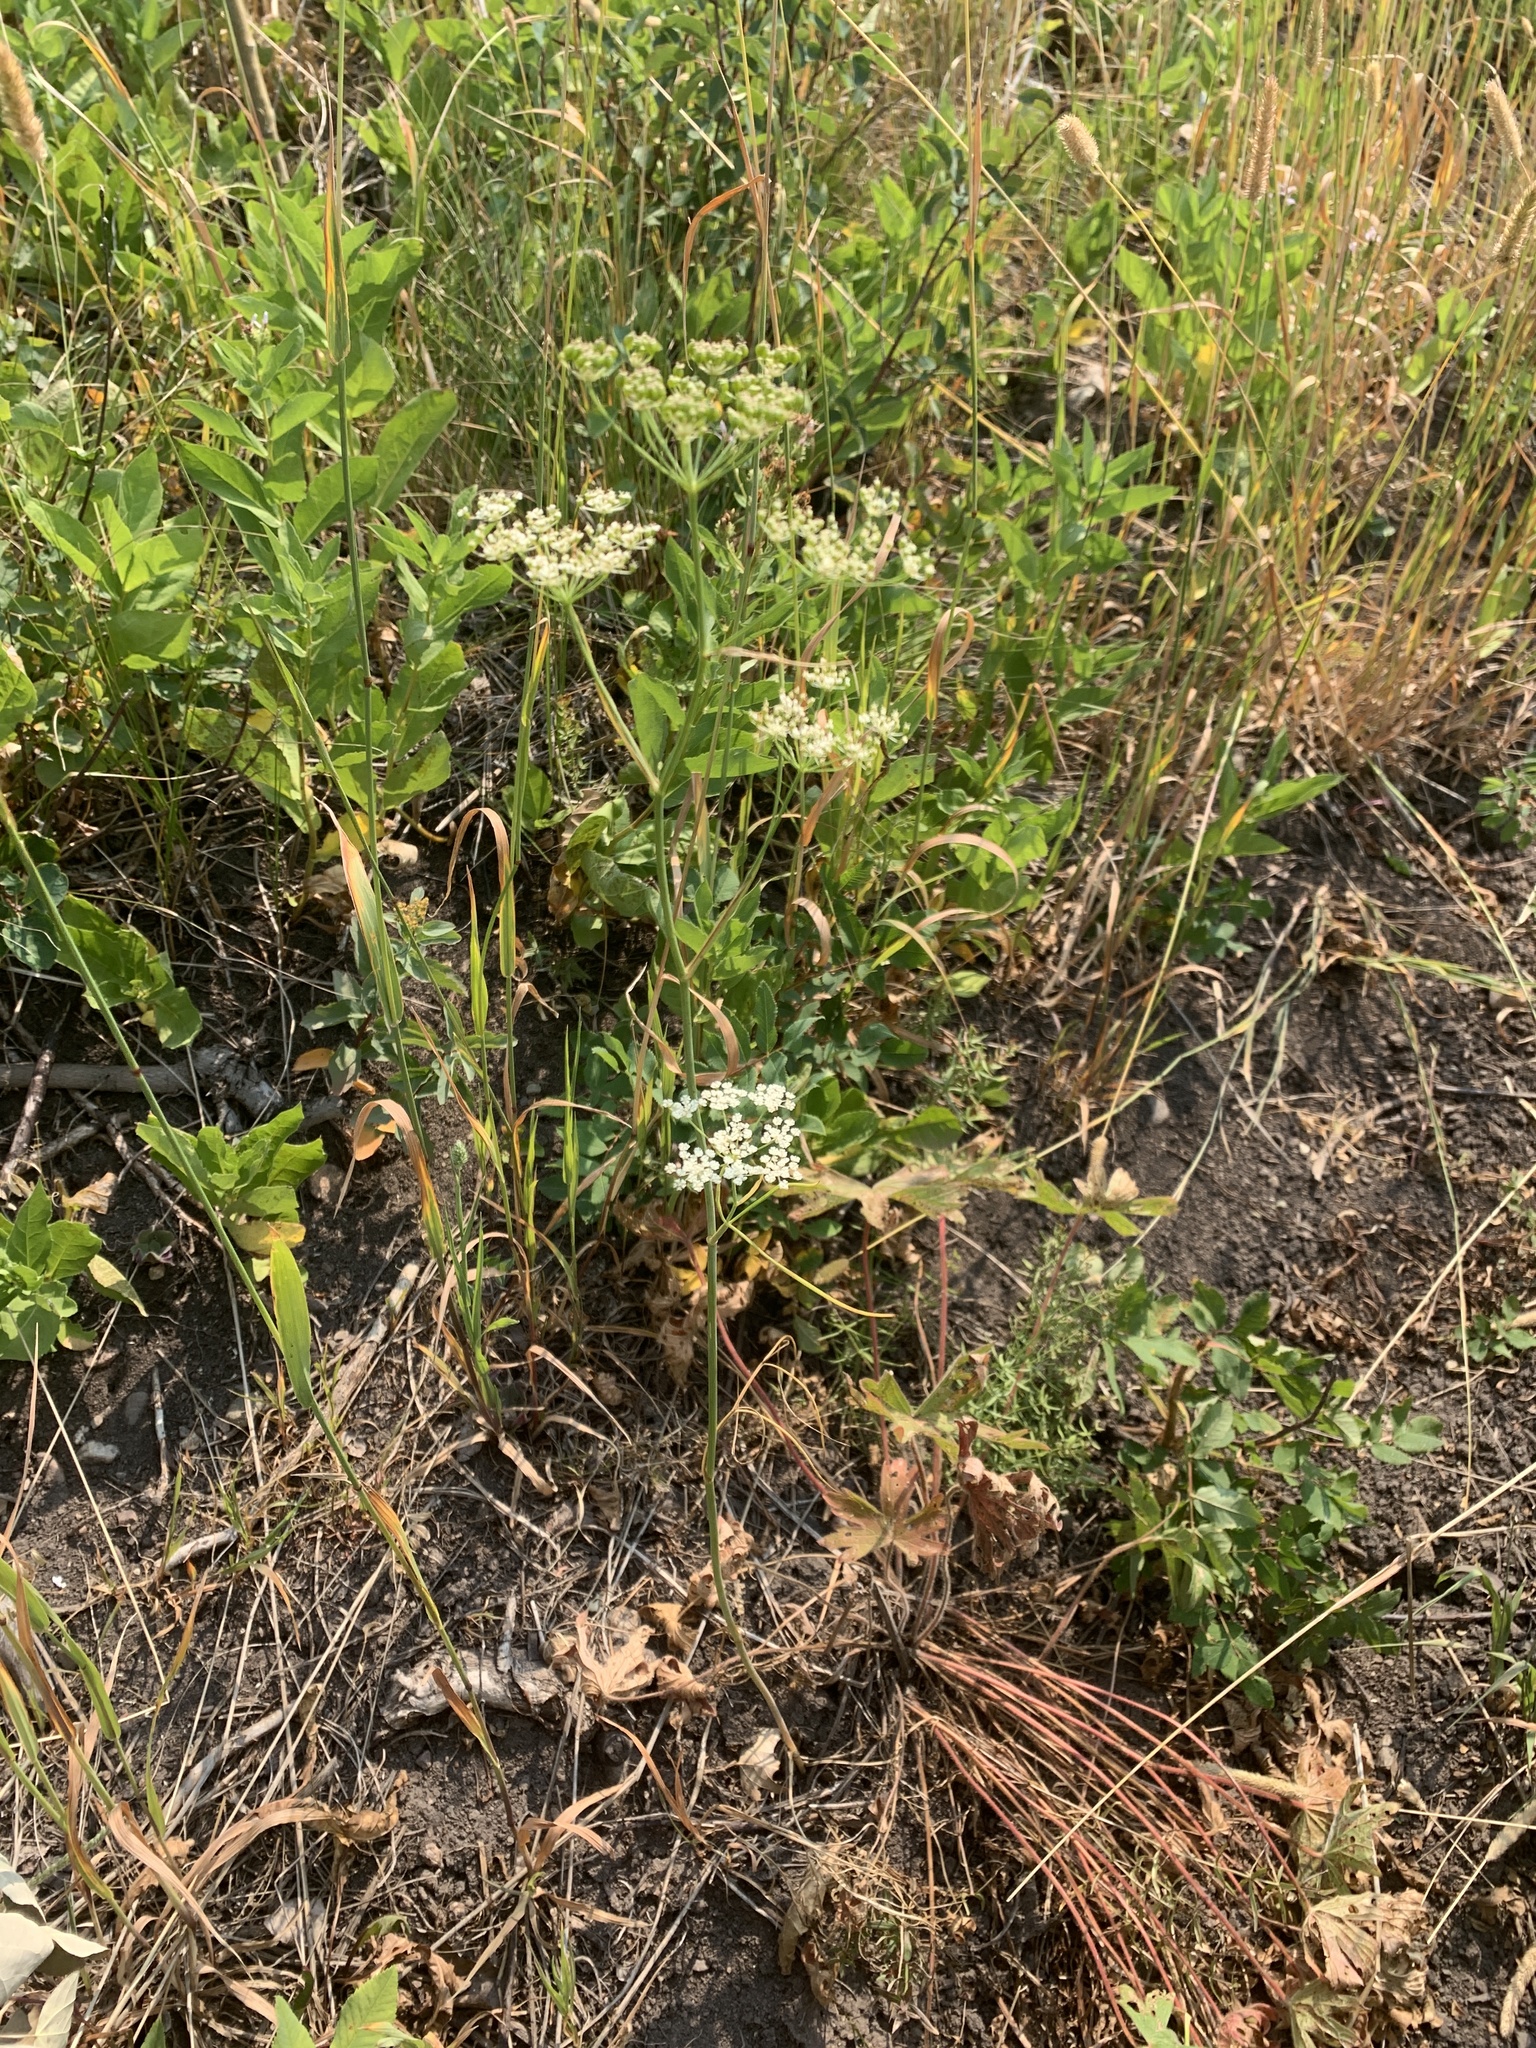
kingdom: Plantae
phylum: Tracheophyta
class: Magnoliopsida
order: Apiales
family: Apiaceae
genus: Perideridia
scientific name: Perideridia gairdneri
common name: False caraway
